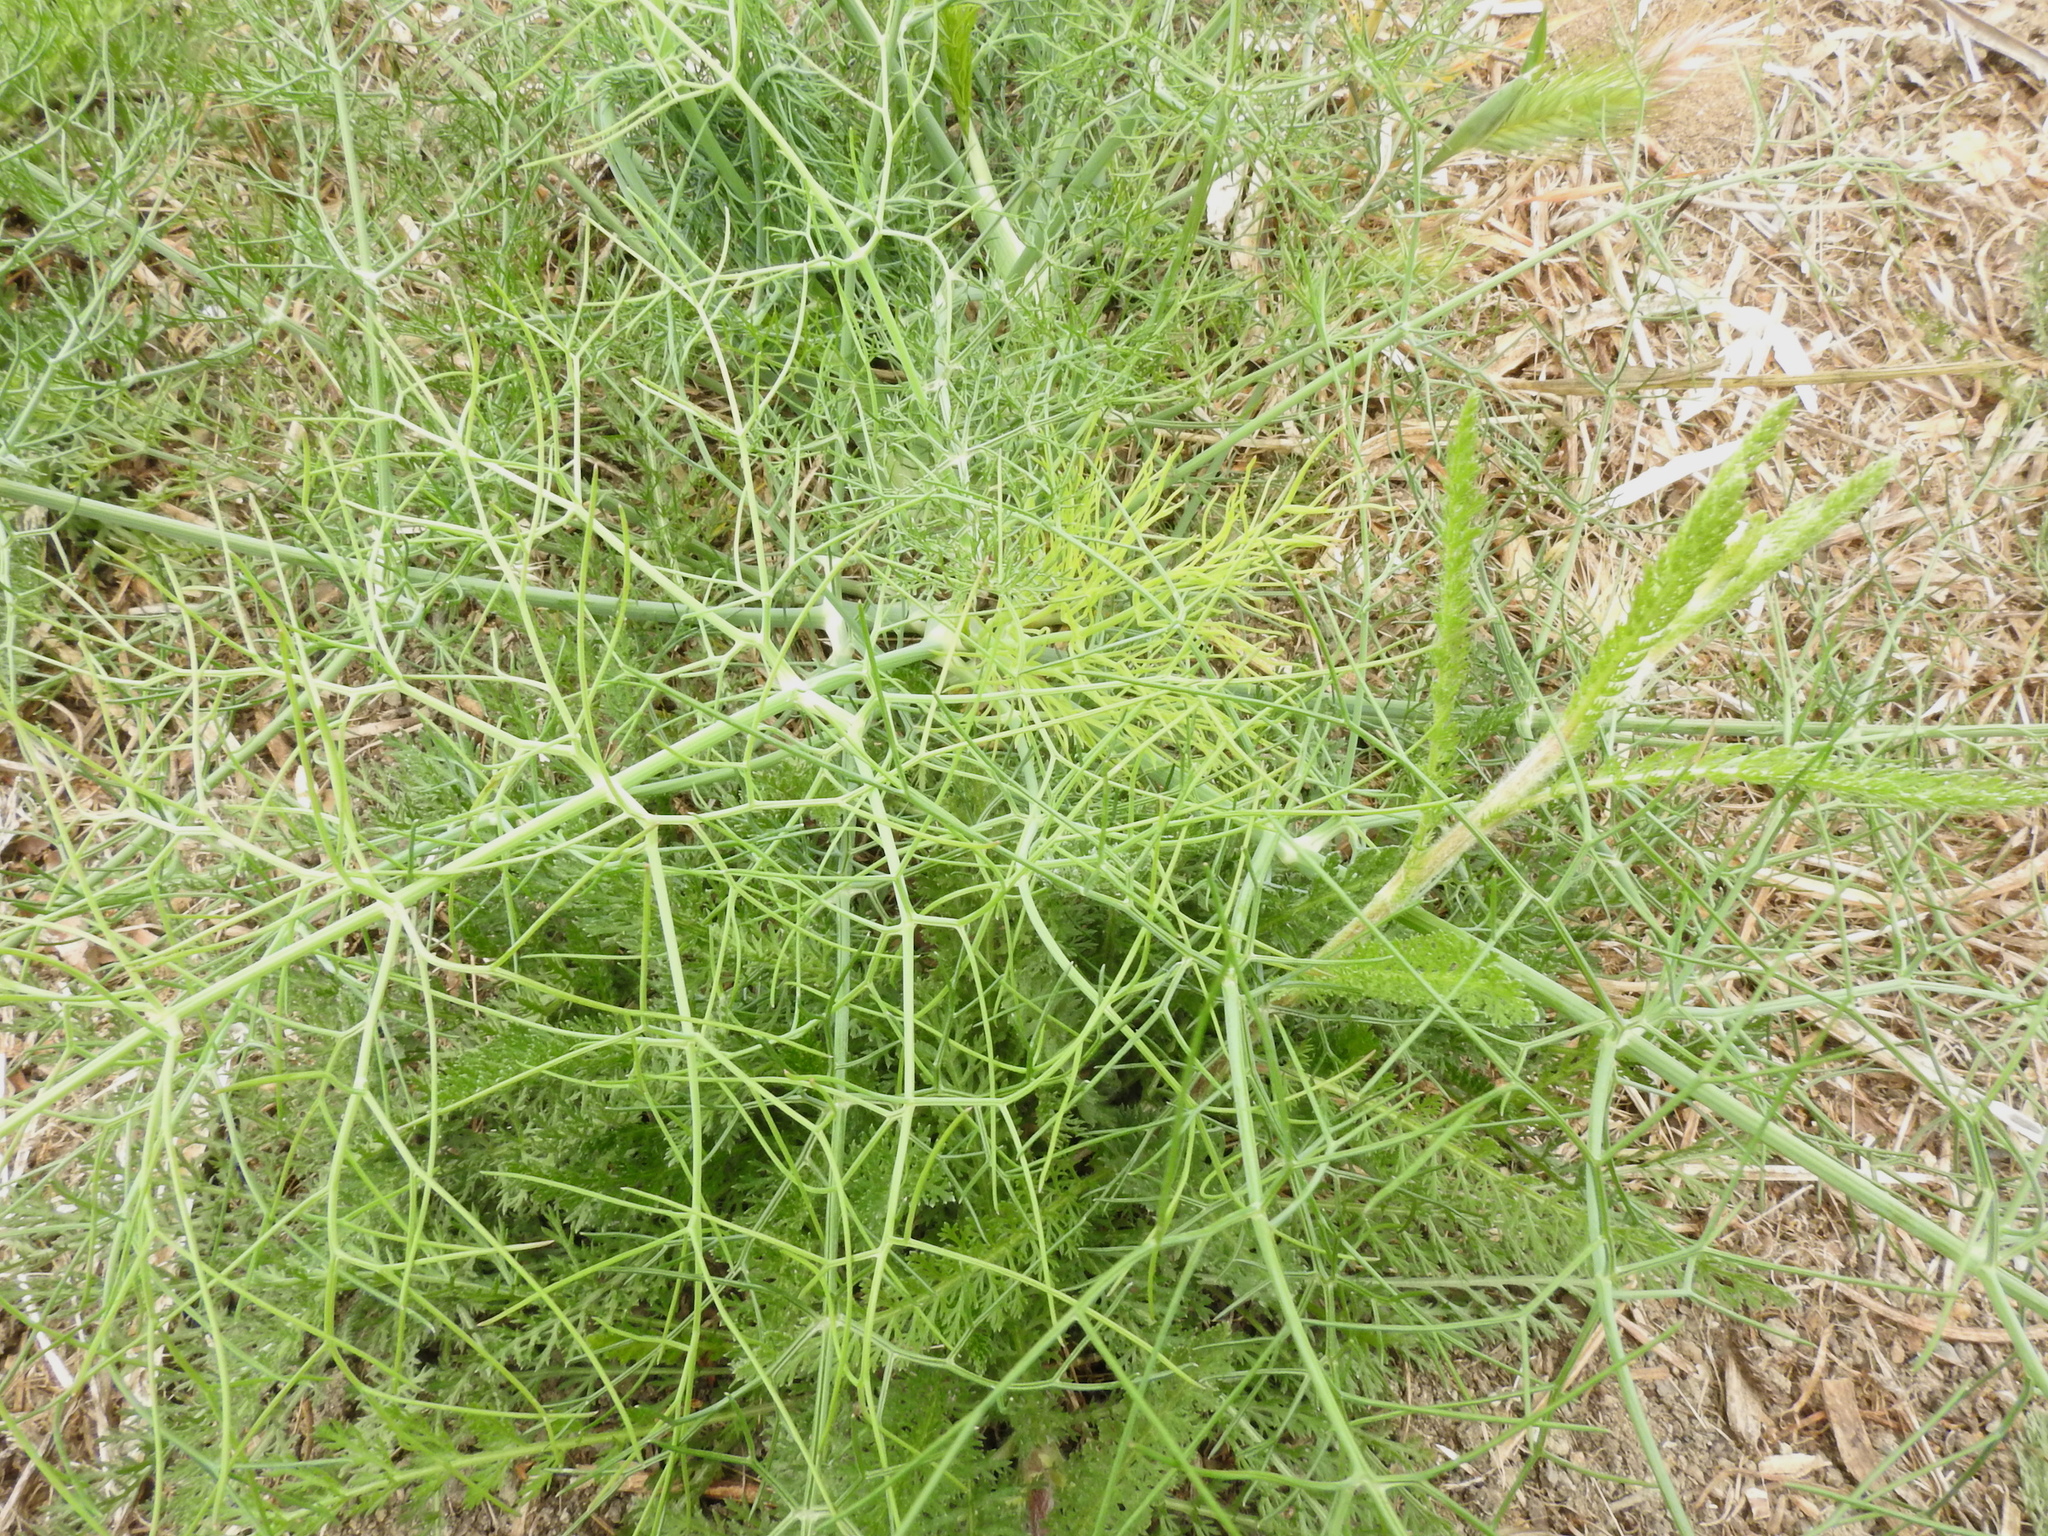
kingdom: Plantae
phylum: Tracheophyta
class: Magnoliopsida
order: Apiales
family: Apiaceae
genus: Foeniculum
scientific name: Foeniculum vulgare
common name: Fennel
